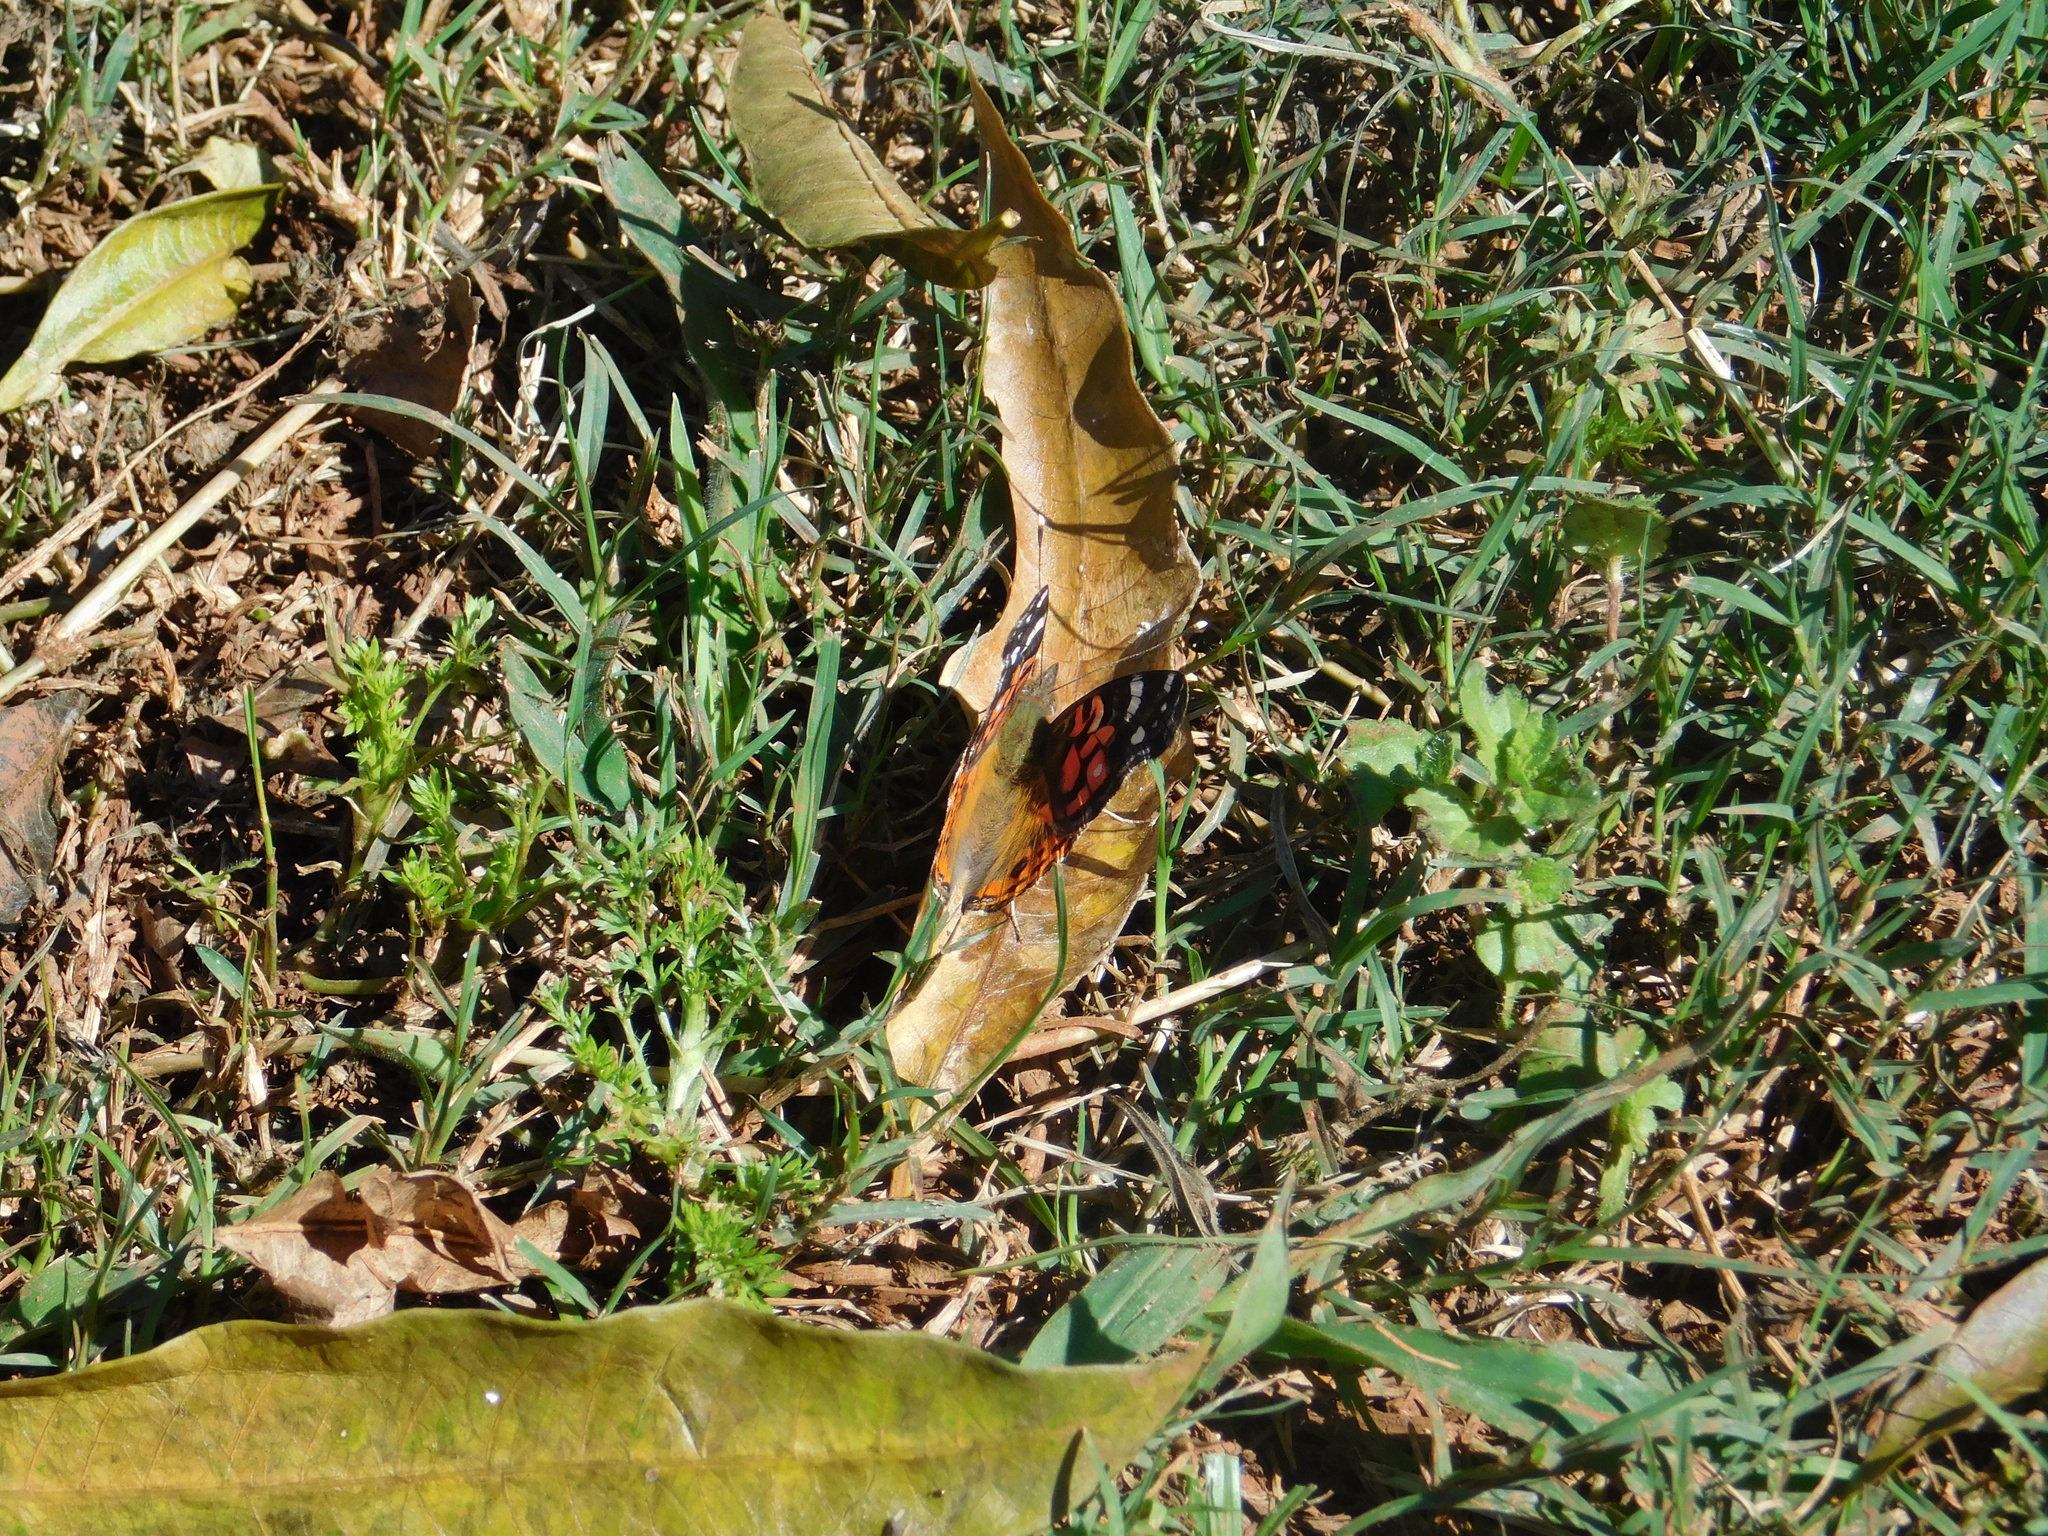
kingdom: Animalia
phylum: Arthropoda
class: Insecta
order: Lepidoptera
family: Nymphalidae
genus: Vanessa
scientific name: Vanessa braziliensis
